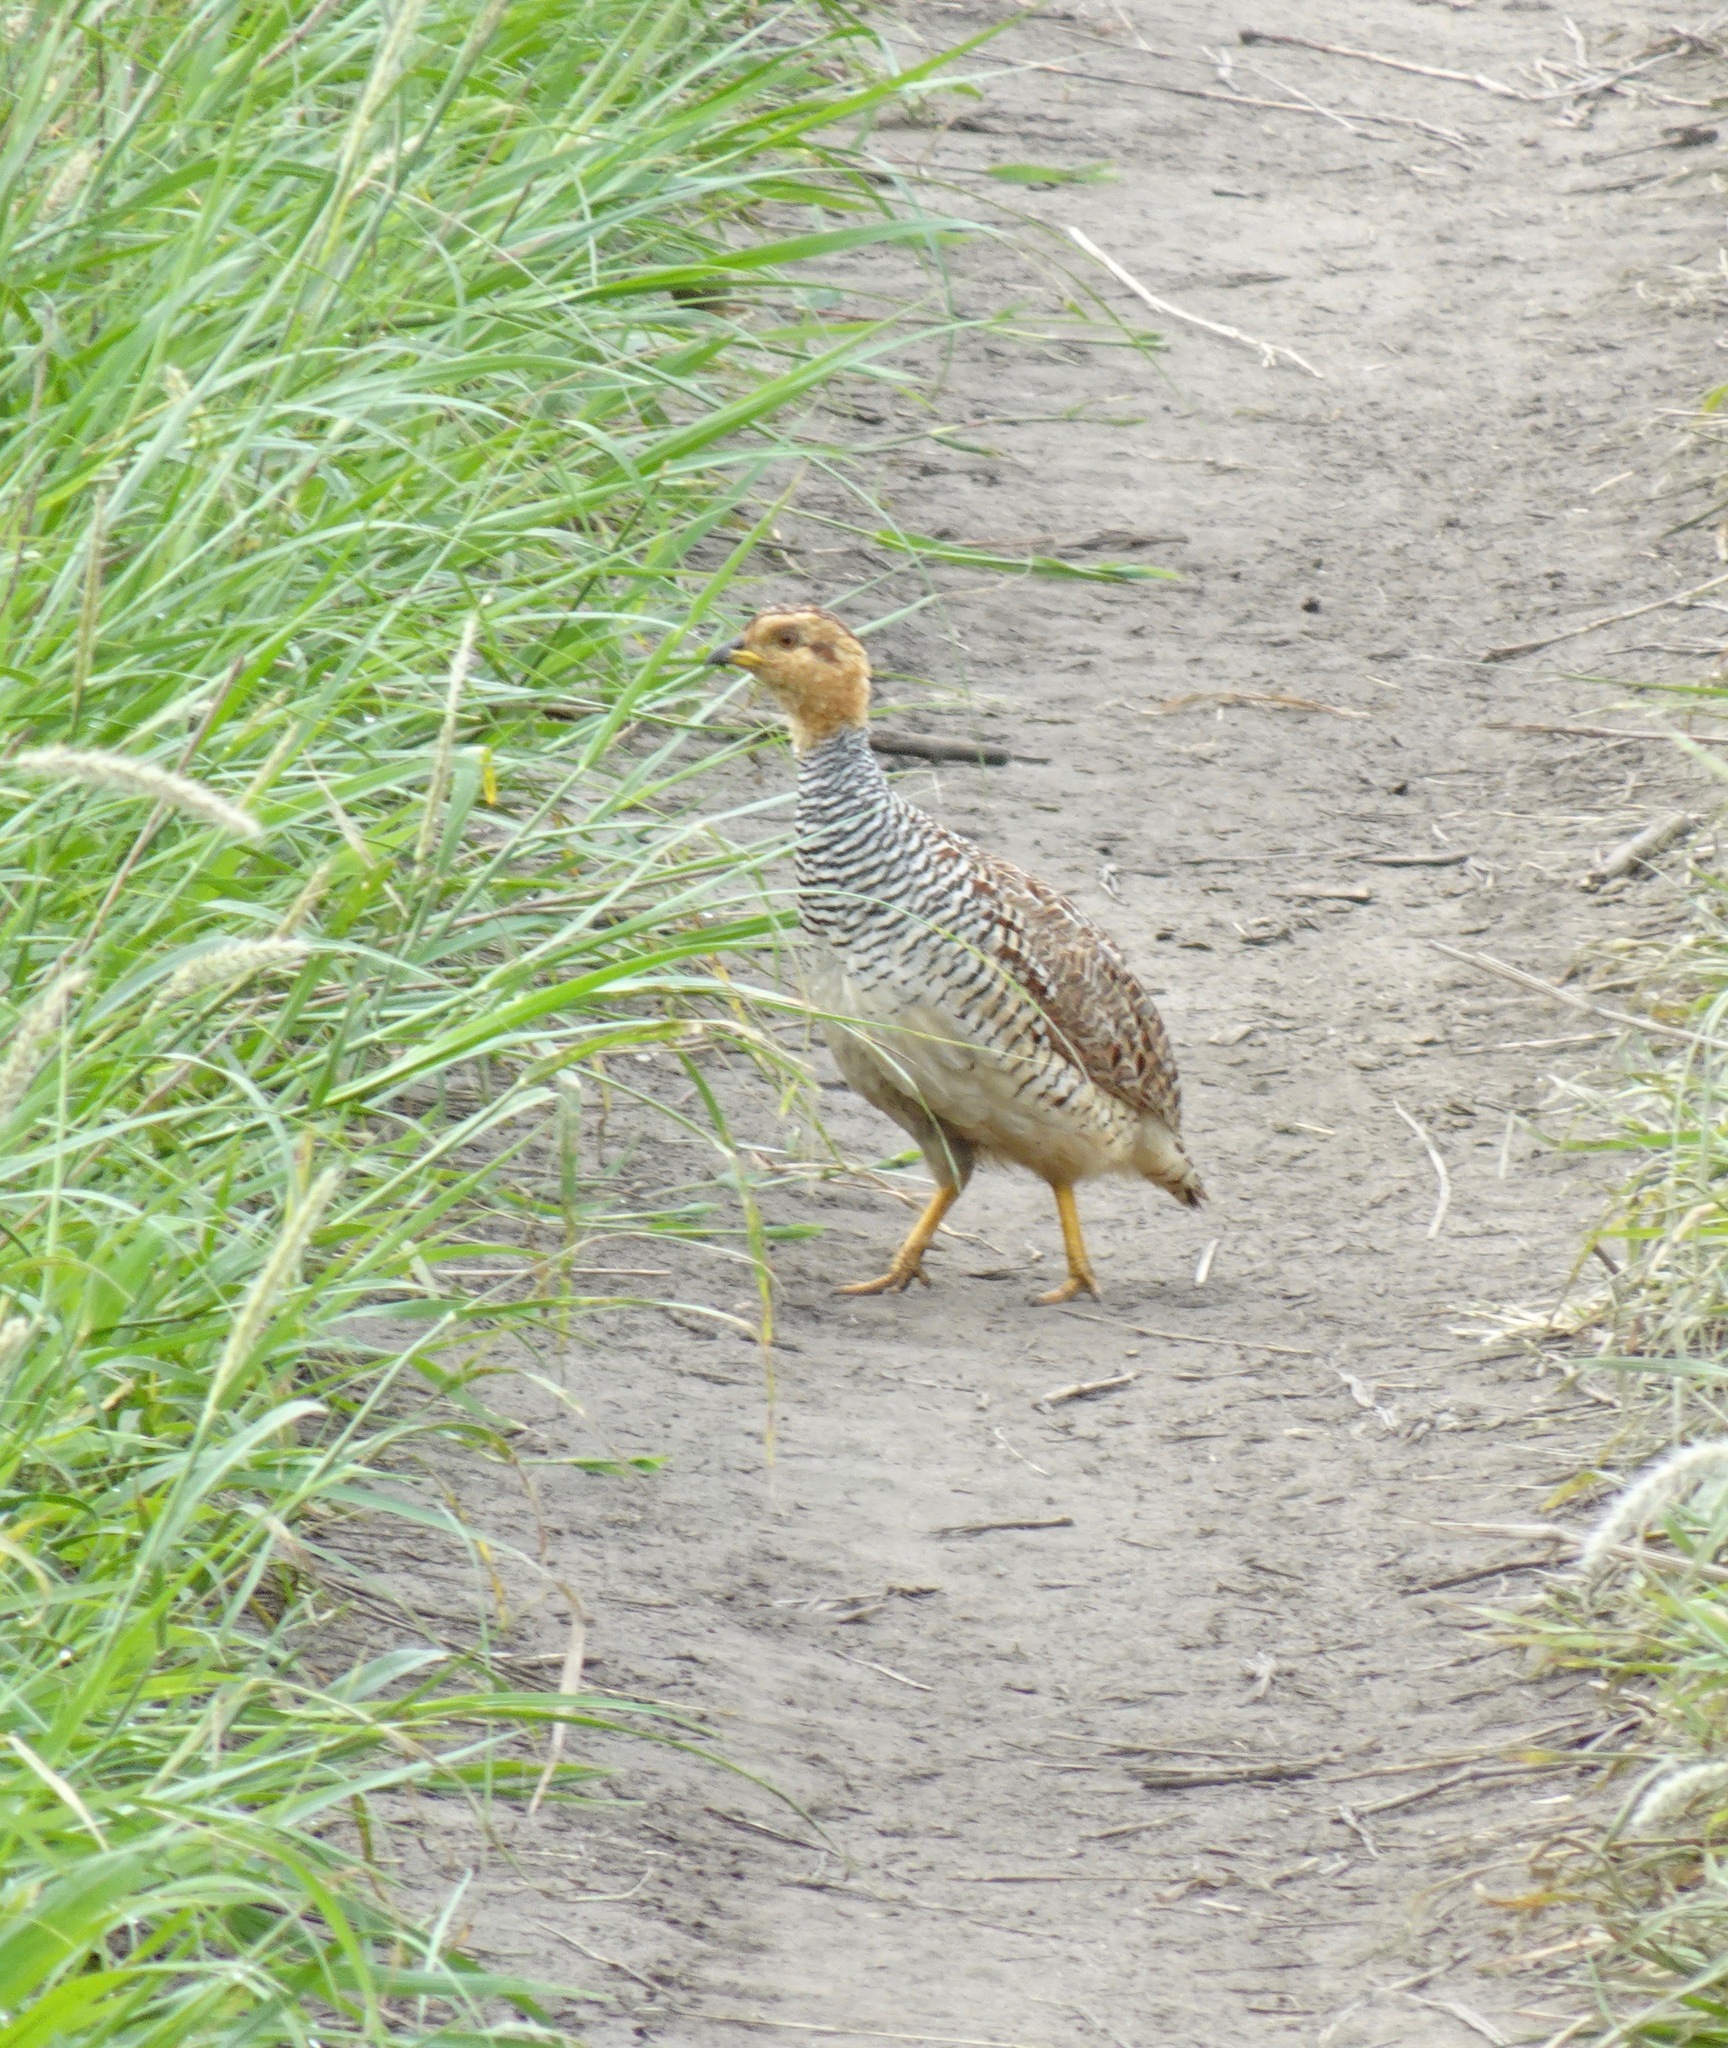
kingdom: Animalia
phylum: Chordata
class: Aves
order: Galliformes
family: Phasianidae
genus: Campocolinus
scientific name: Campocolinus coqui
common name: Coqui francolin
